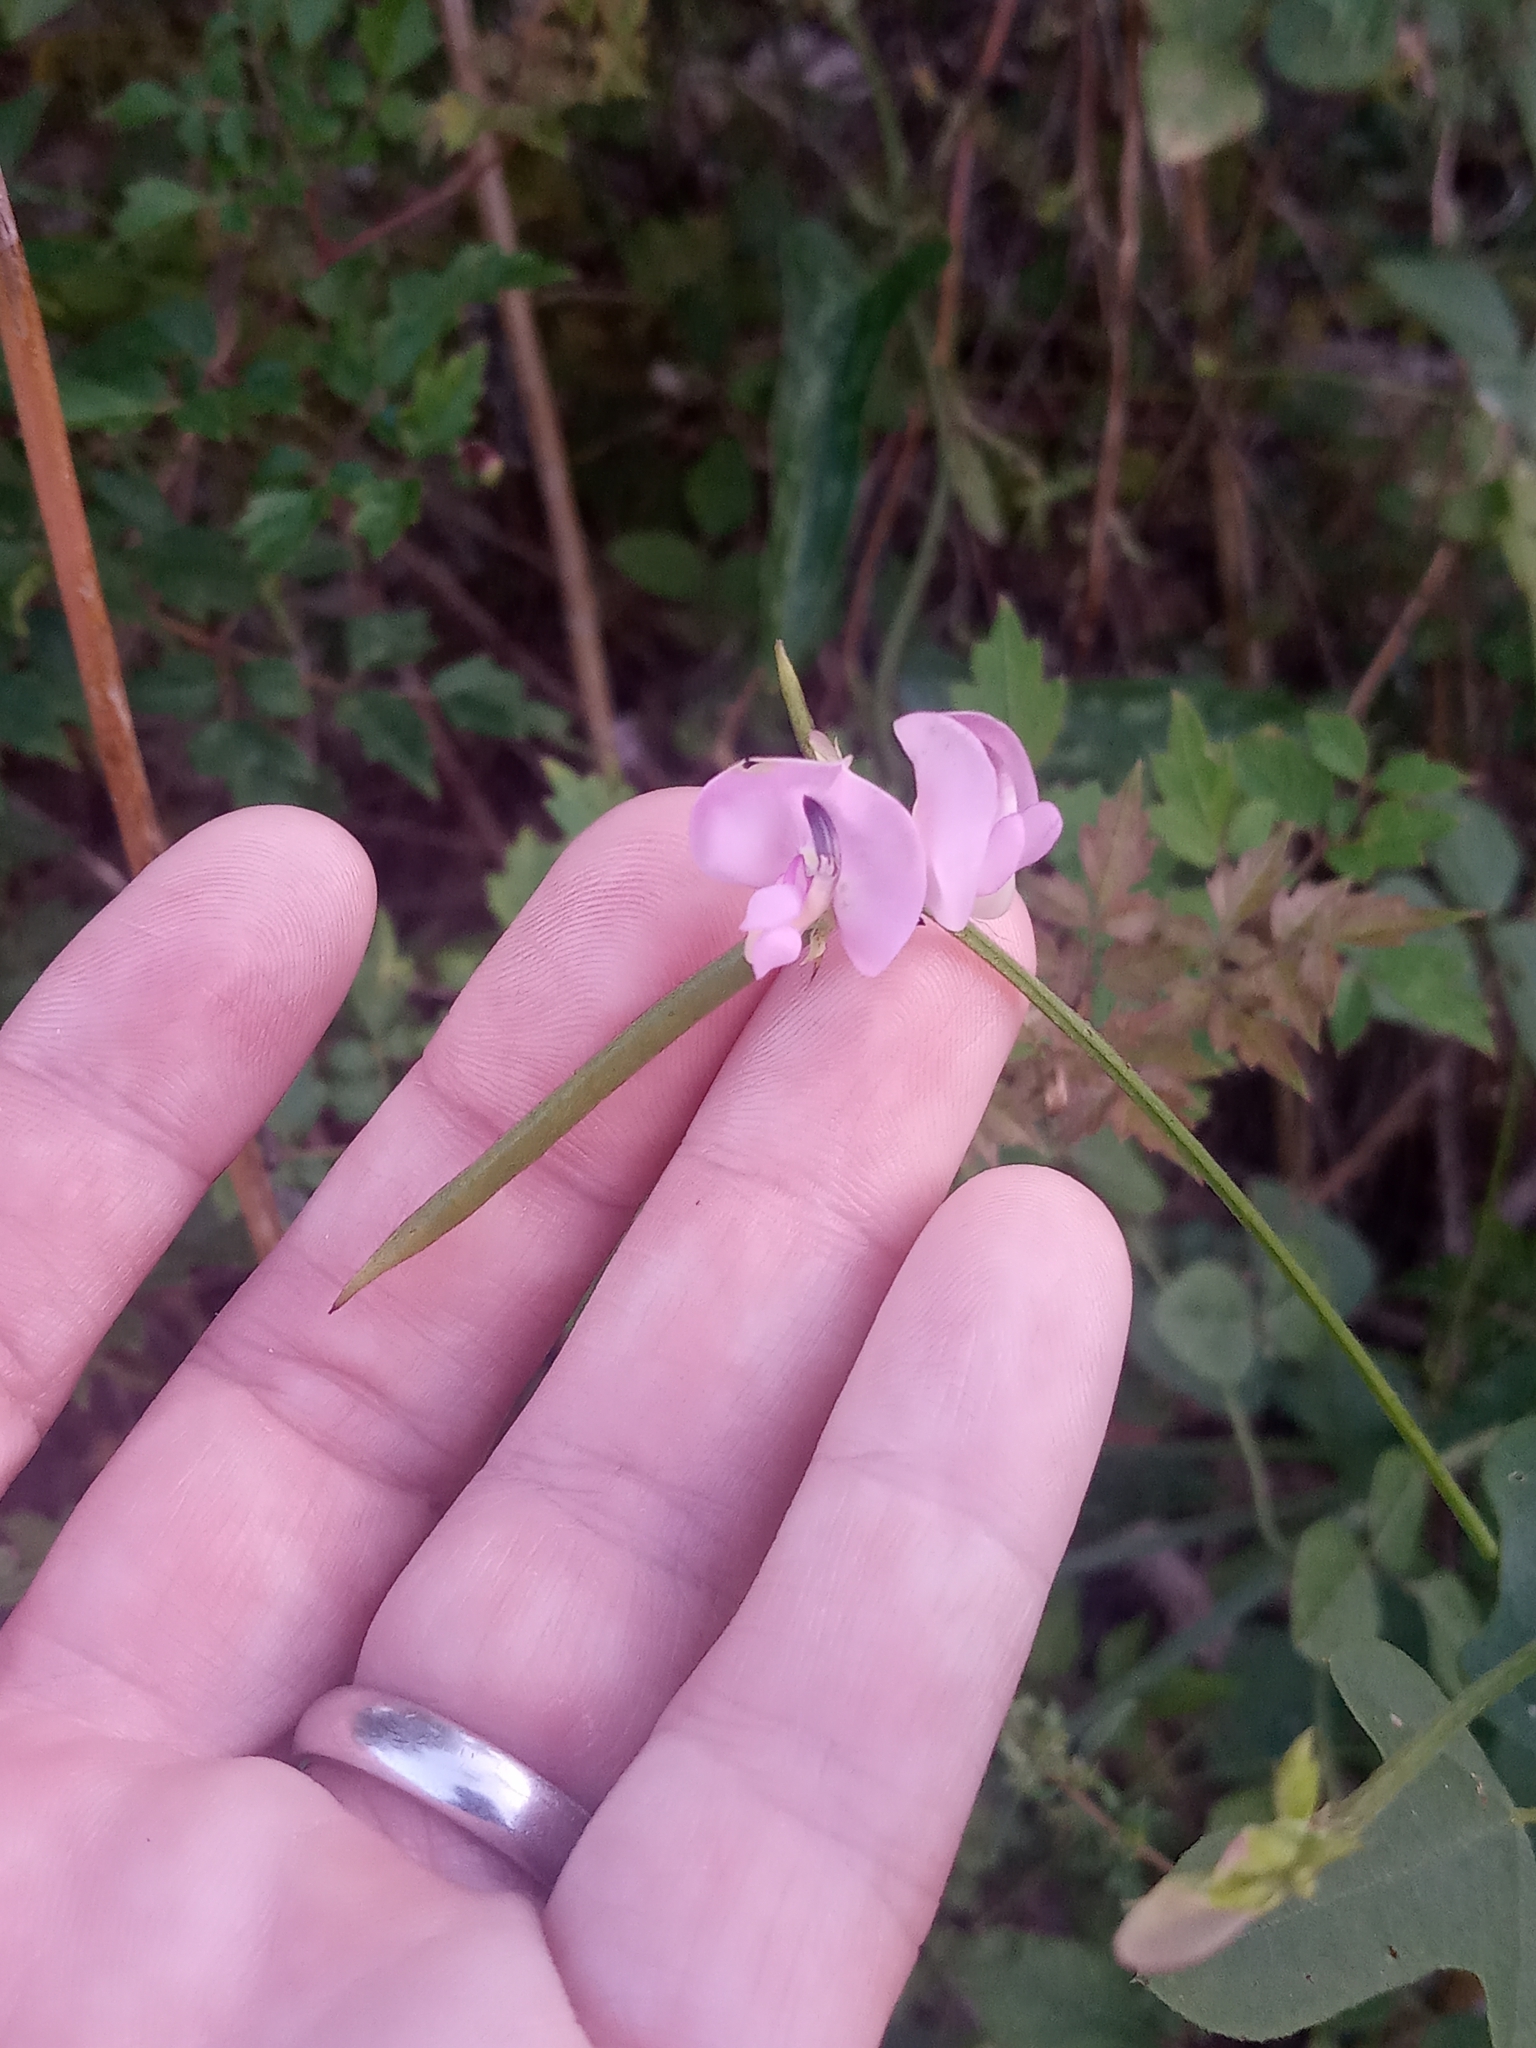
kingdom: Plantae
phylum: Tracheophyta
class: Magnoliopsida
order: Fabales
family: Fabaceae
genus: Strophostyles
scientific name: Strophostyles helvola
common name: Trailing wild bean
